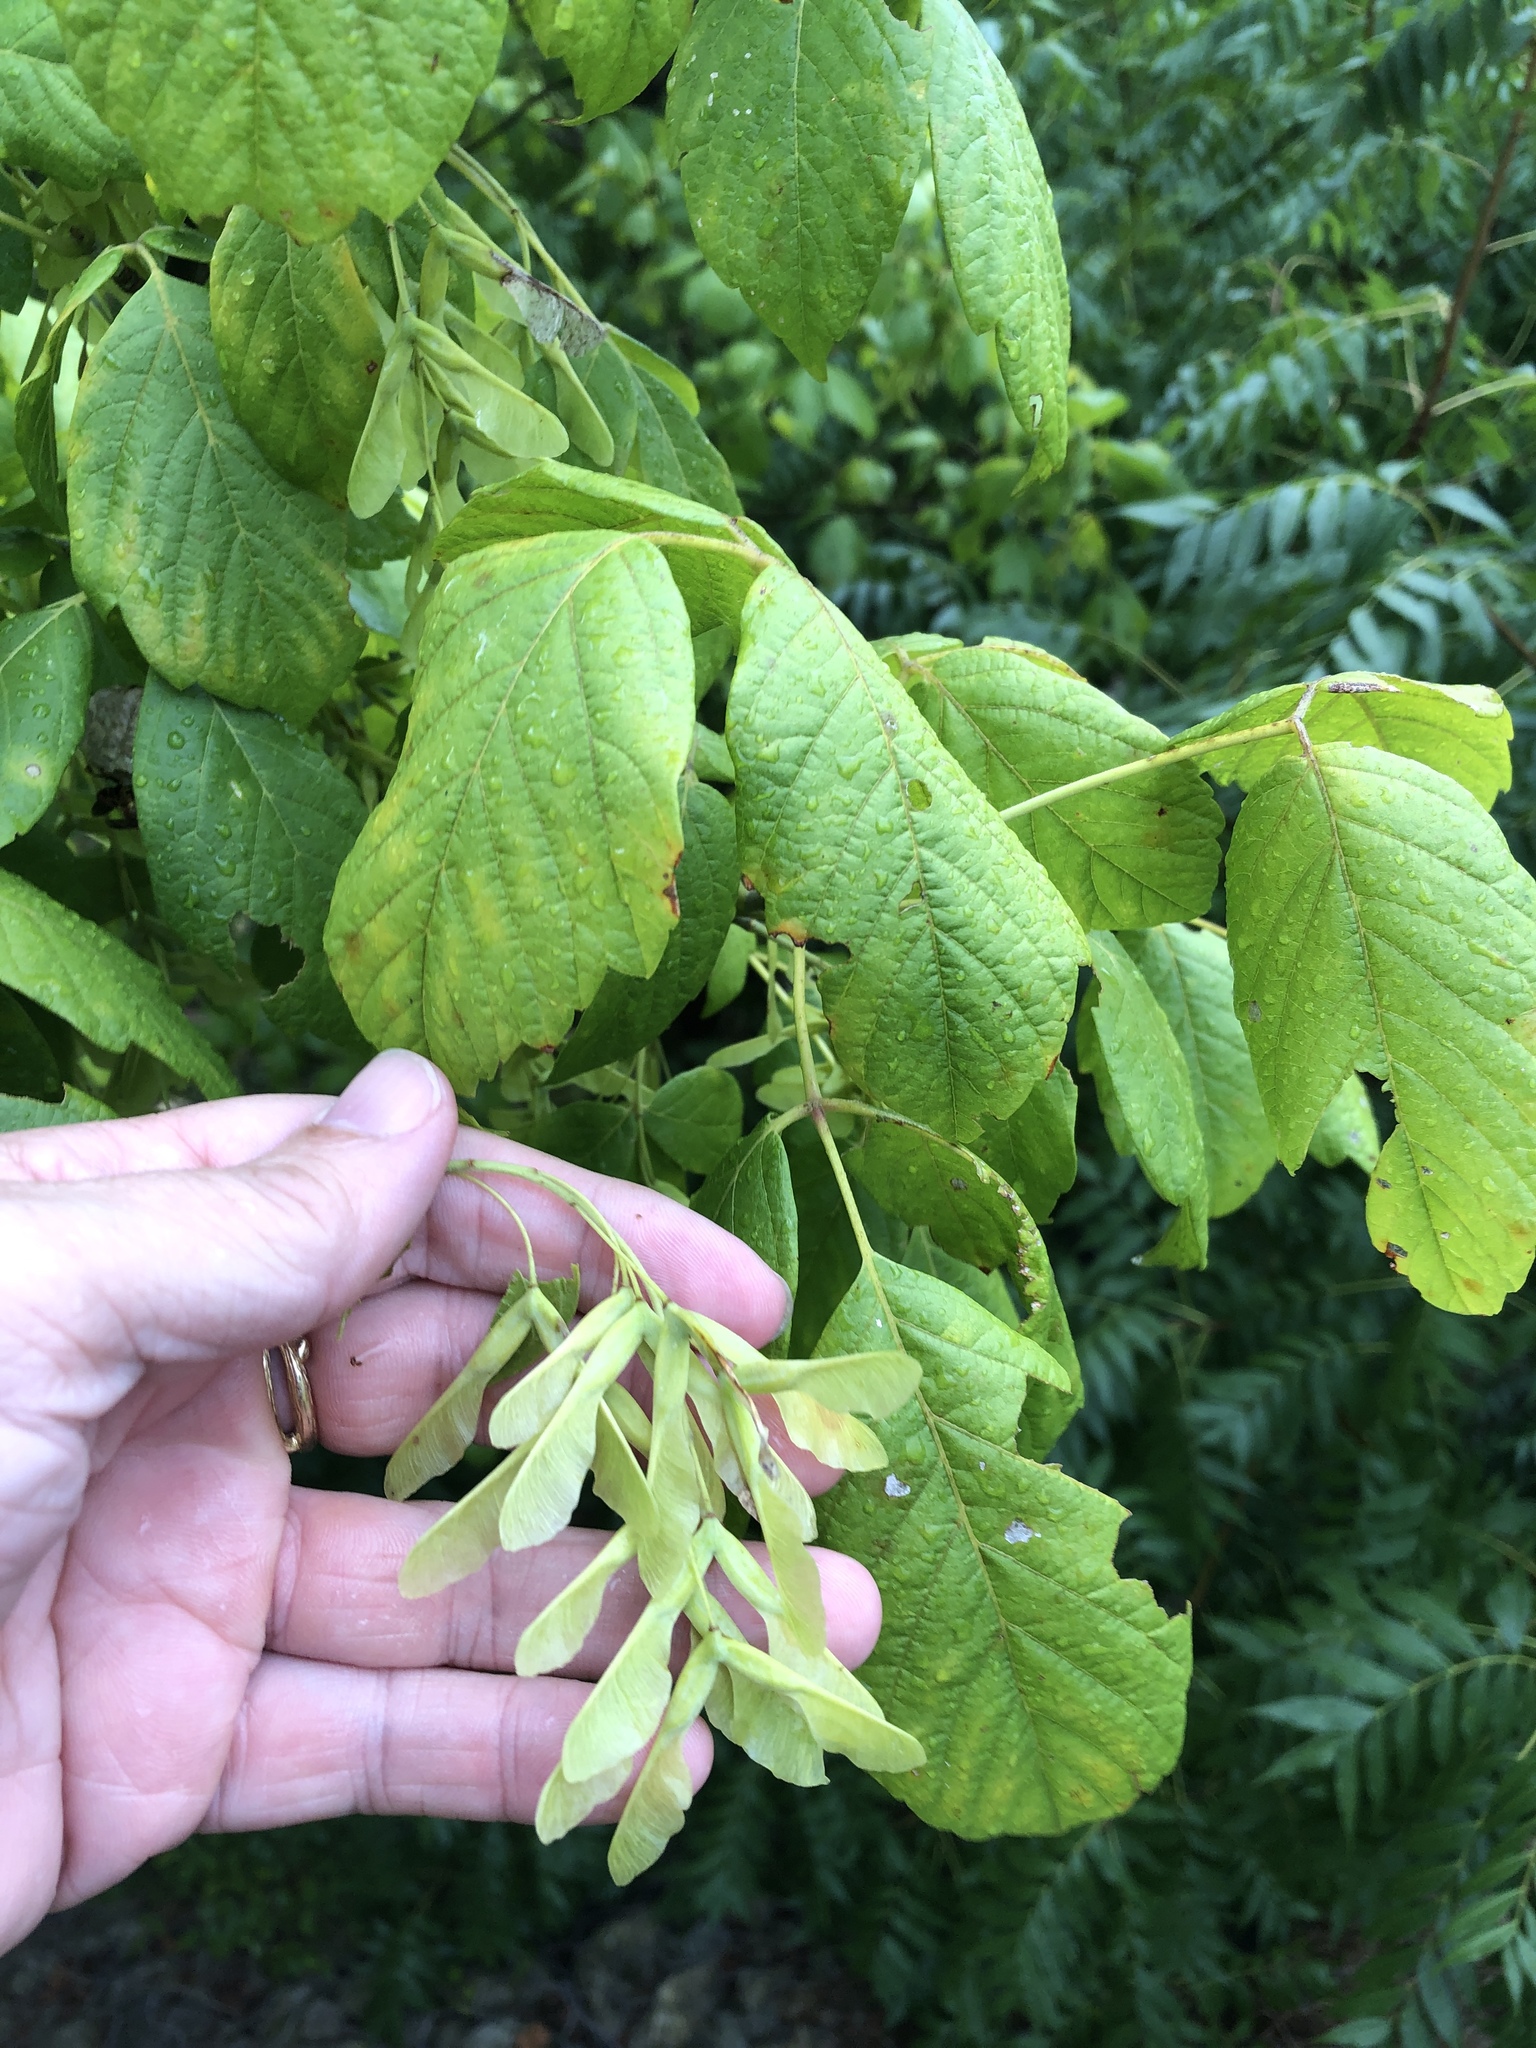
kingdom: Plantae
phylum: Tracheophyta
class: Magnoliopsida
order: Sapindales
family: Sapindaceae
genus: Acer
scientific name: Acer negundo
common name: Ashleaf maple
